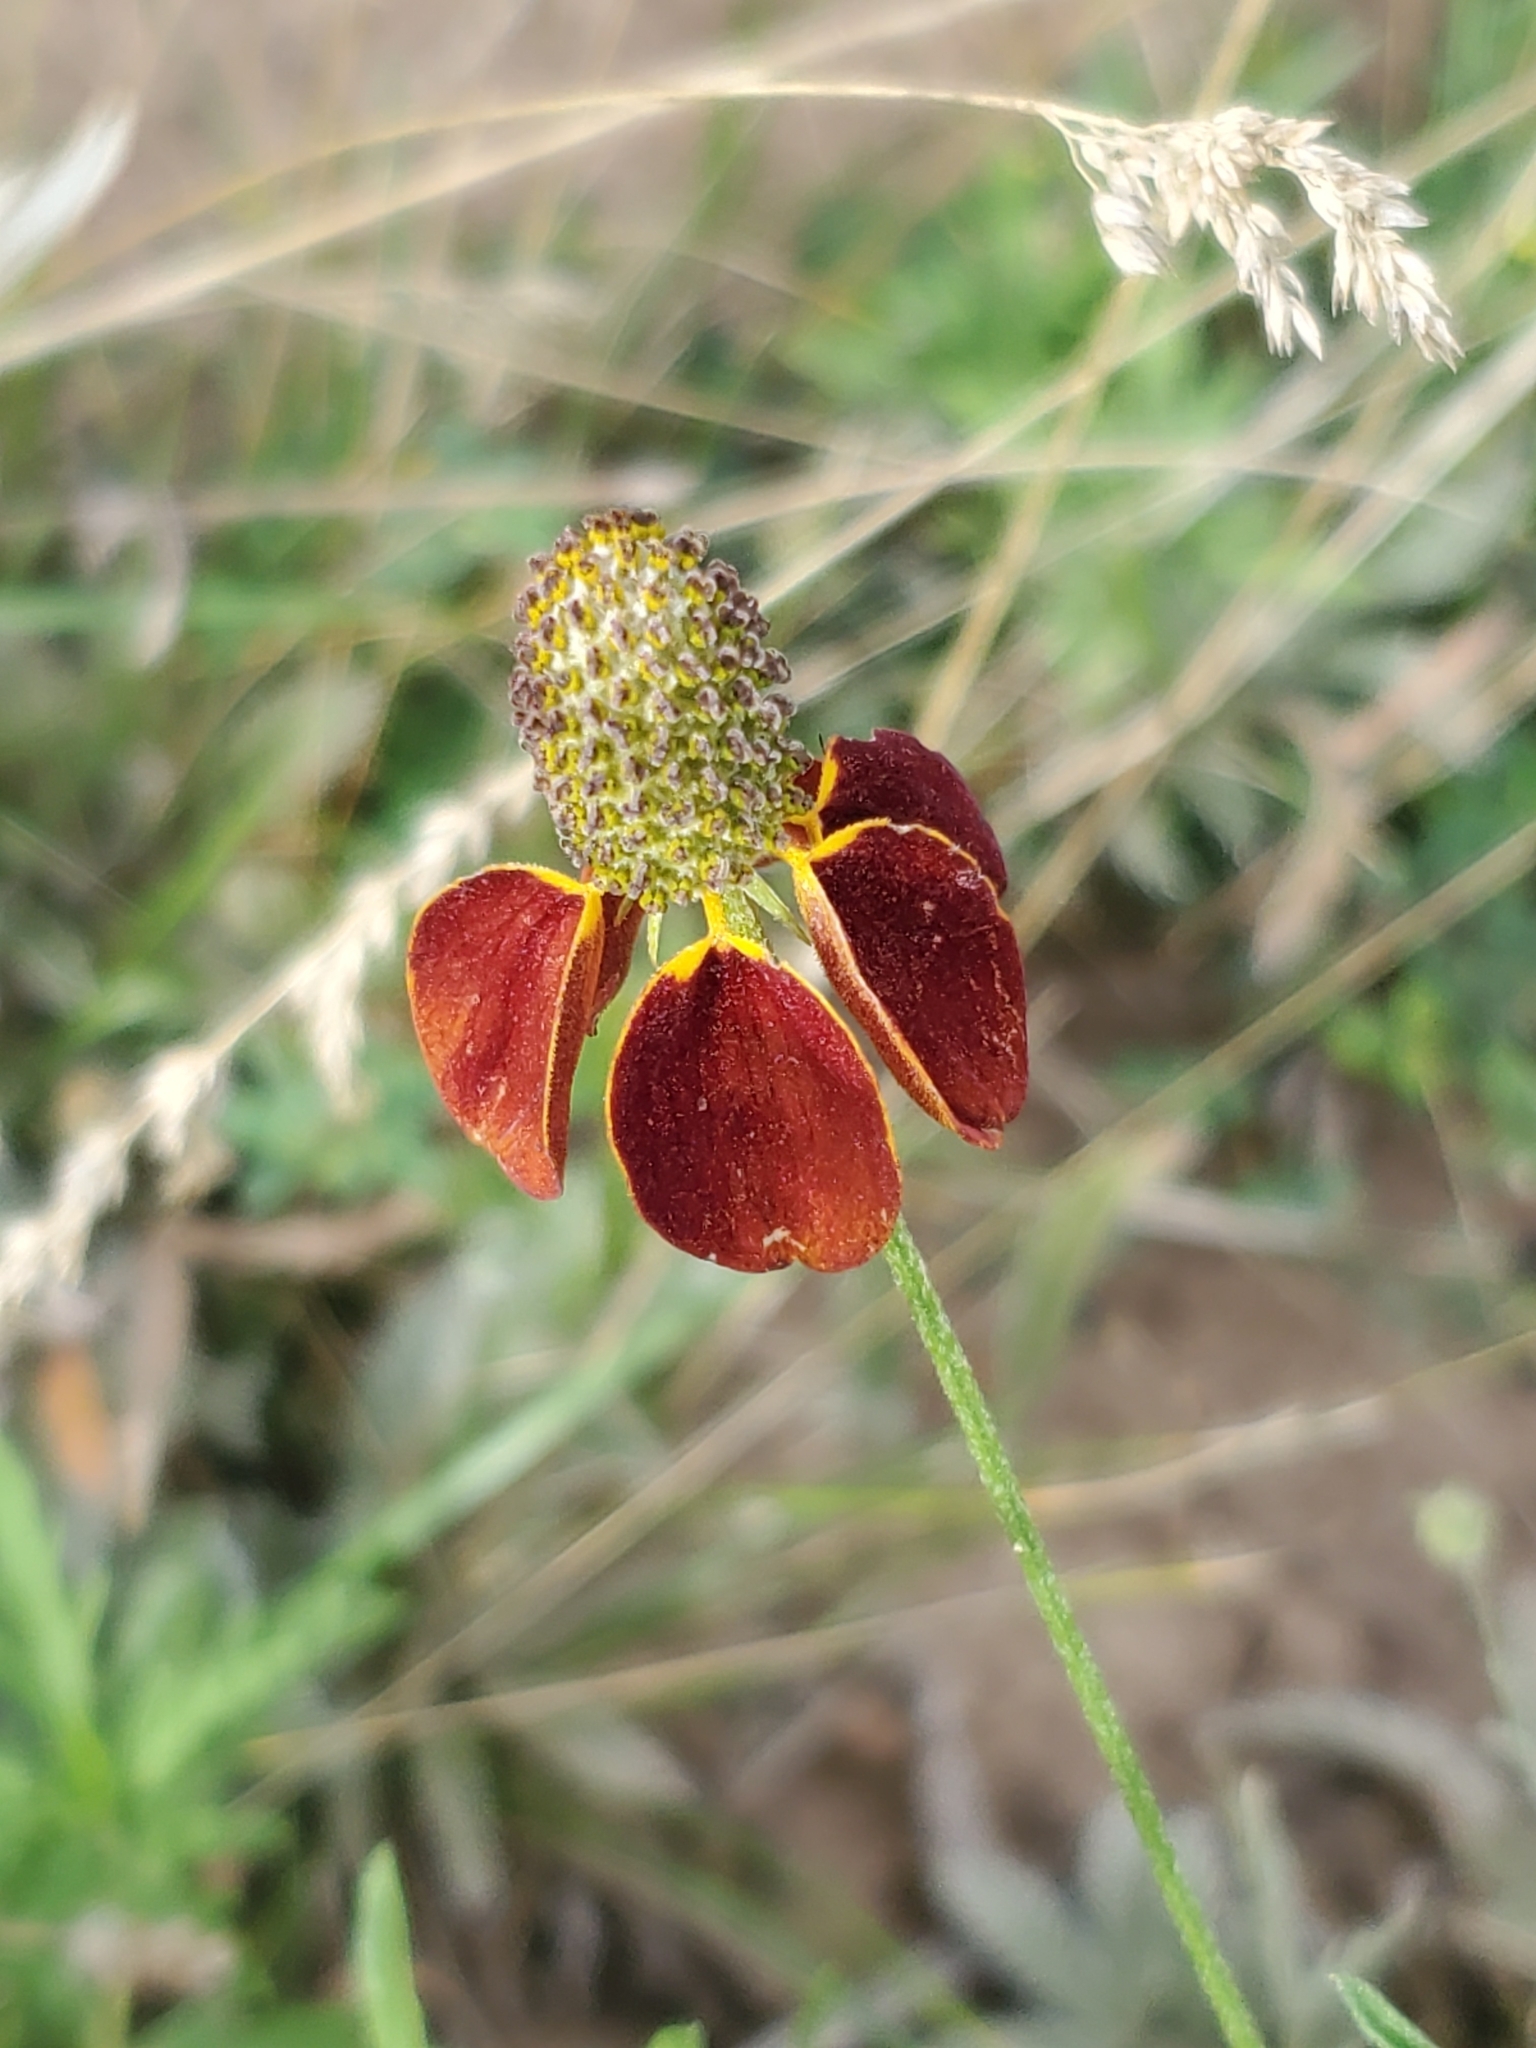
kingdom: Plantae
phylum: Tracheophyta
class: Magnoliopsida
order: Asterales
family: Asteraceae
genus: Ratibida
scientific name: Ratibida columnifera
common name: Prairie coneflower
